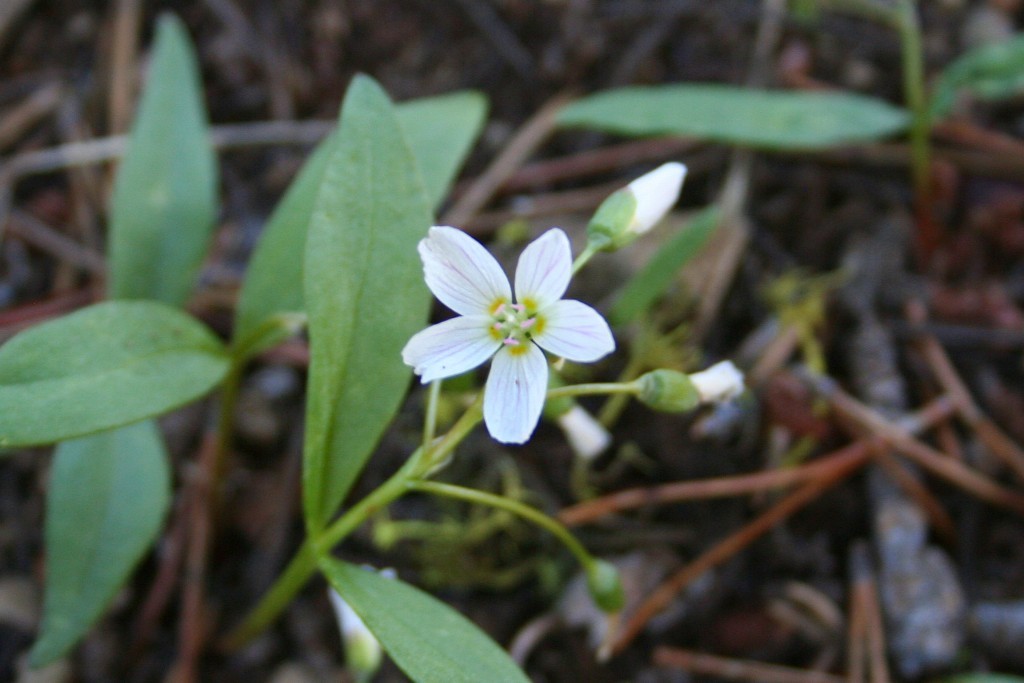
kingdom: Plantae
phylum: Tracheophyta
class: Magnoliopsida
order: Caryophyllales
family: Montiaceae
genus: Claytonia
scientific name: Claytonia lanceolata
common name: Western spring-beauty
